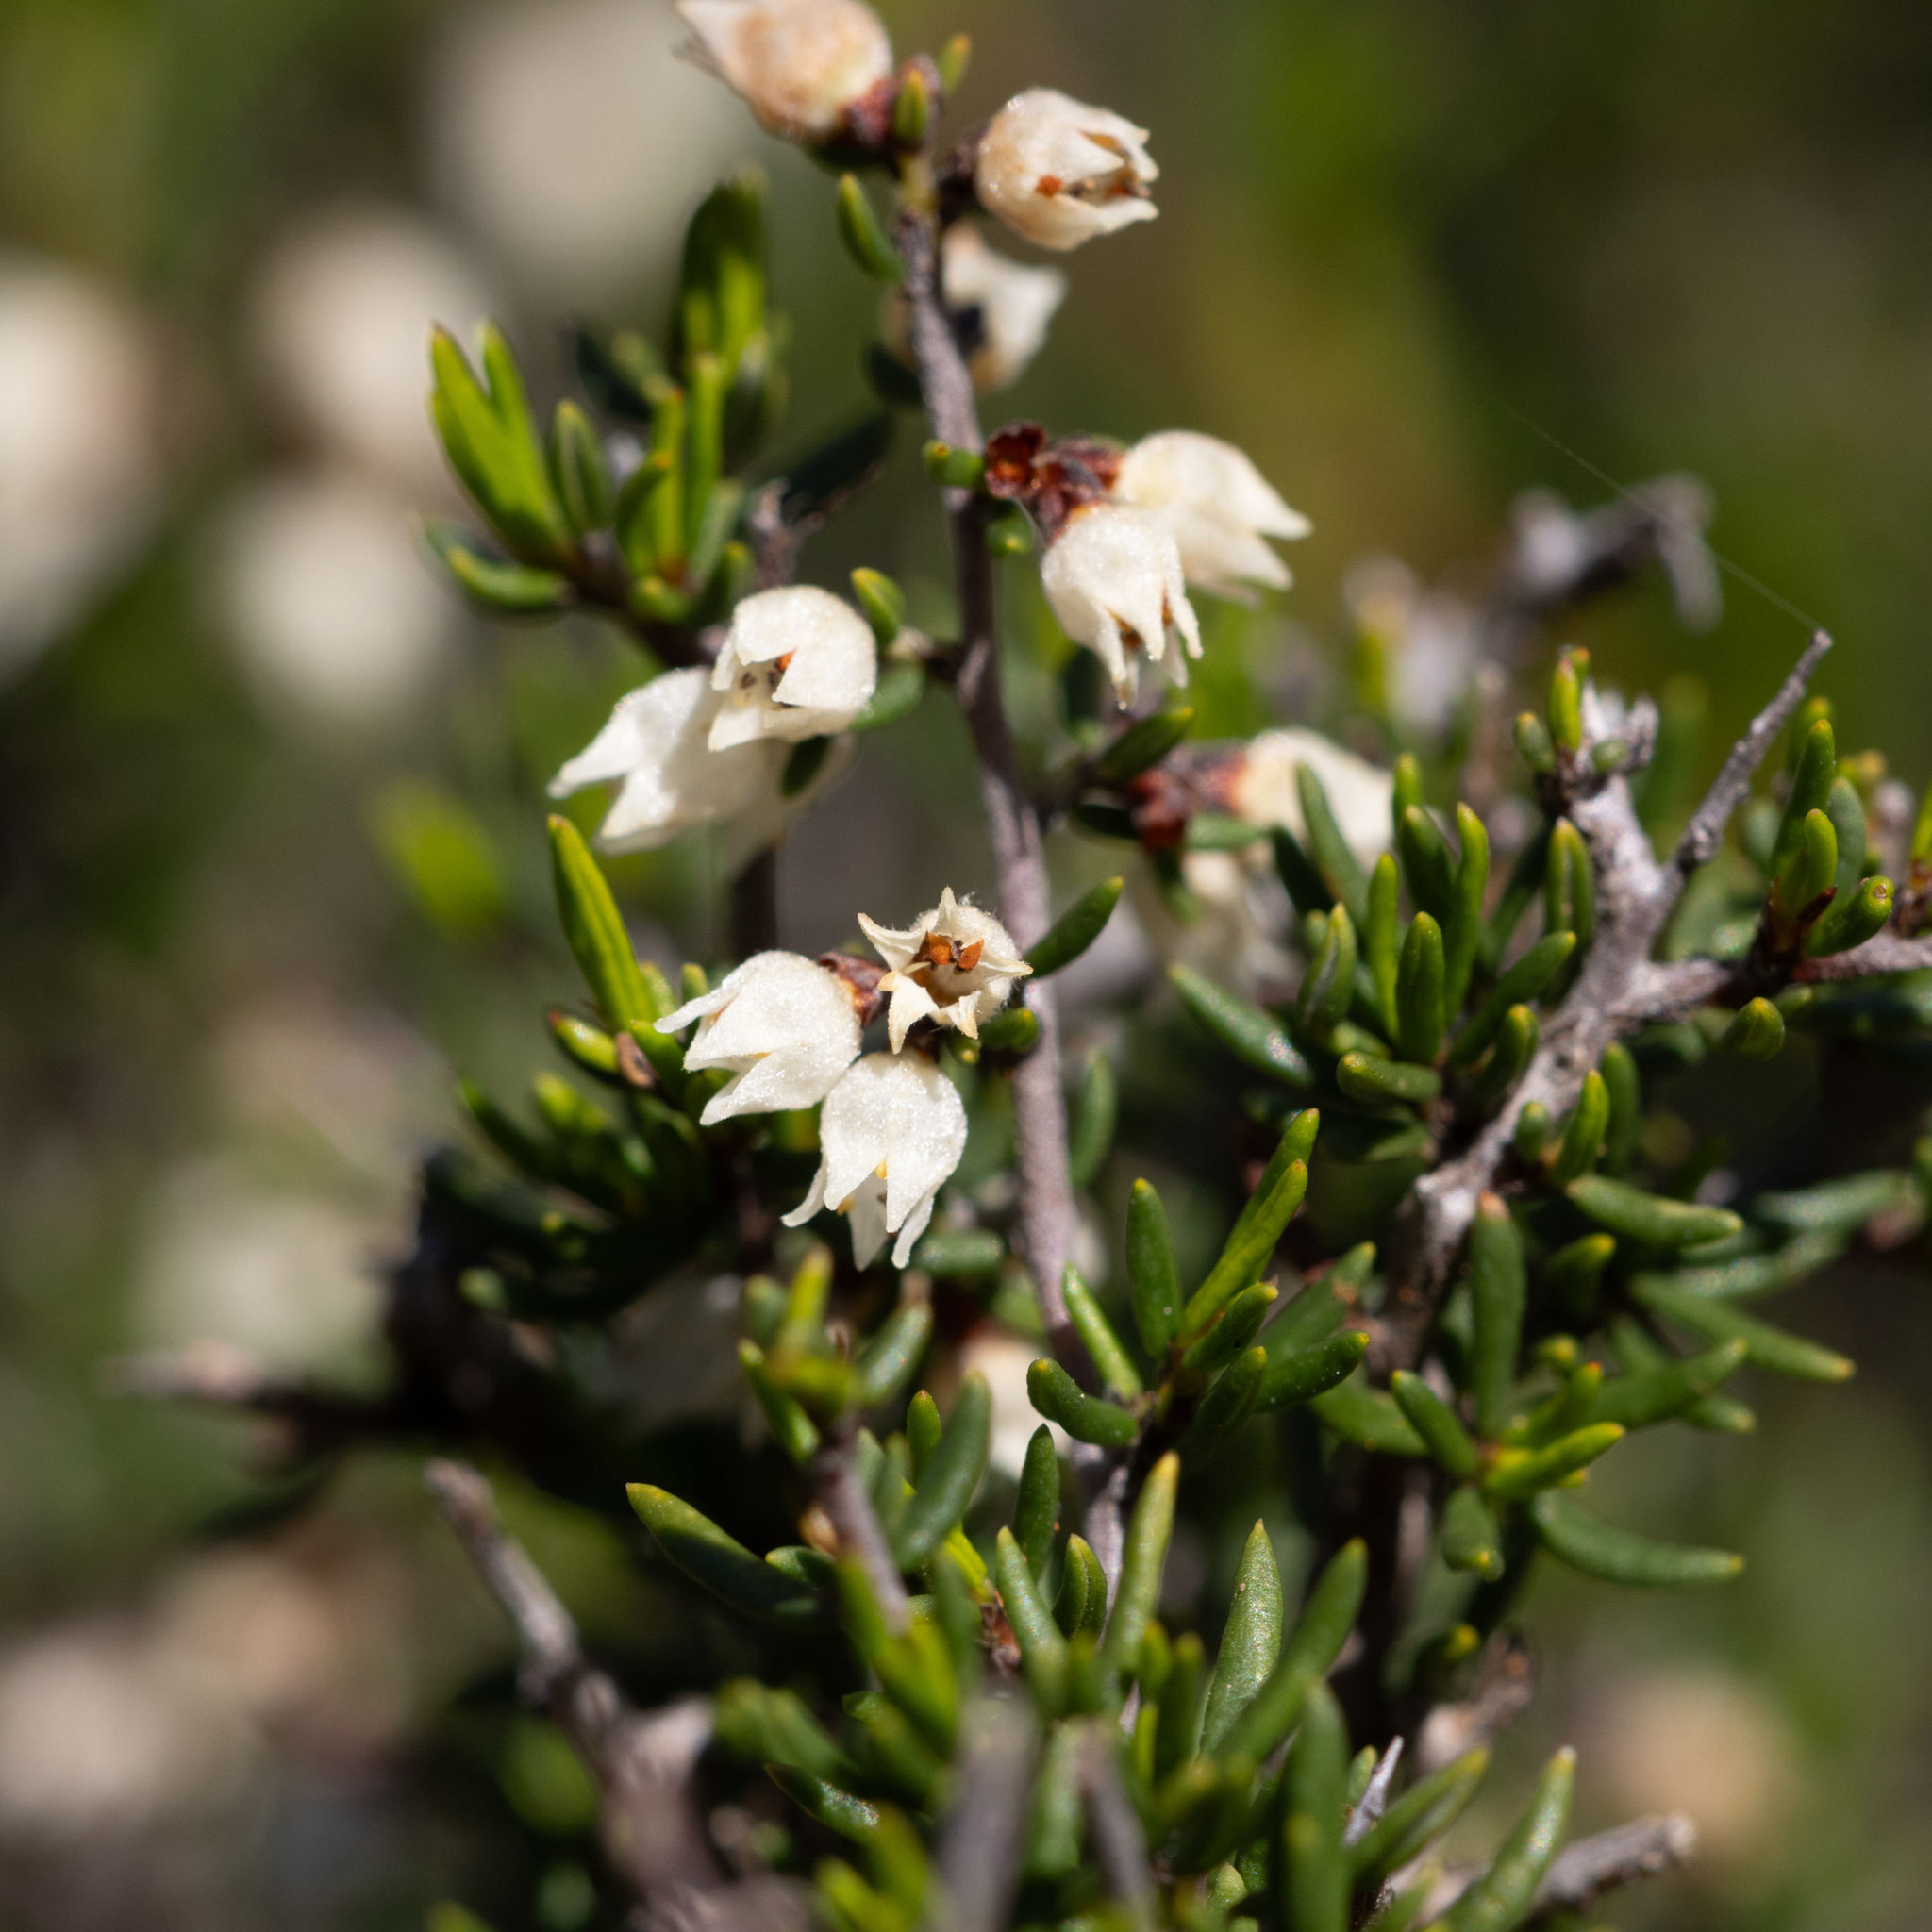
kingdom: Plantae
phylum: Tracheophyta
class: Magnoliopsida
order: Rosales
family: Rhamnaceae
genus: Cryptandra
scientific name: Cryptandra tomentosa
